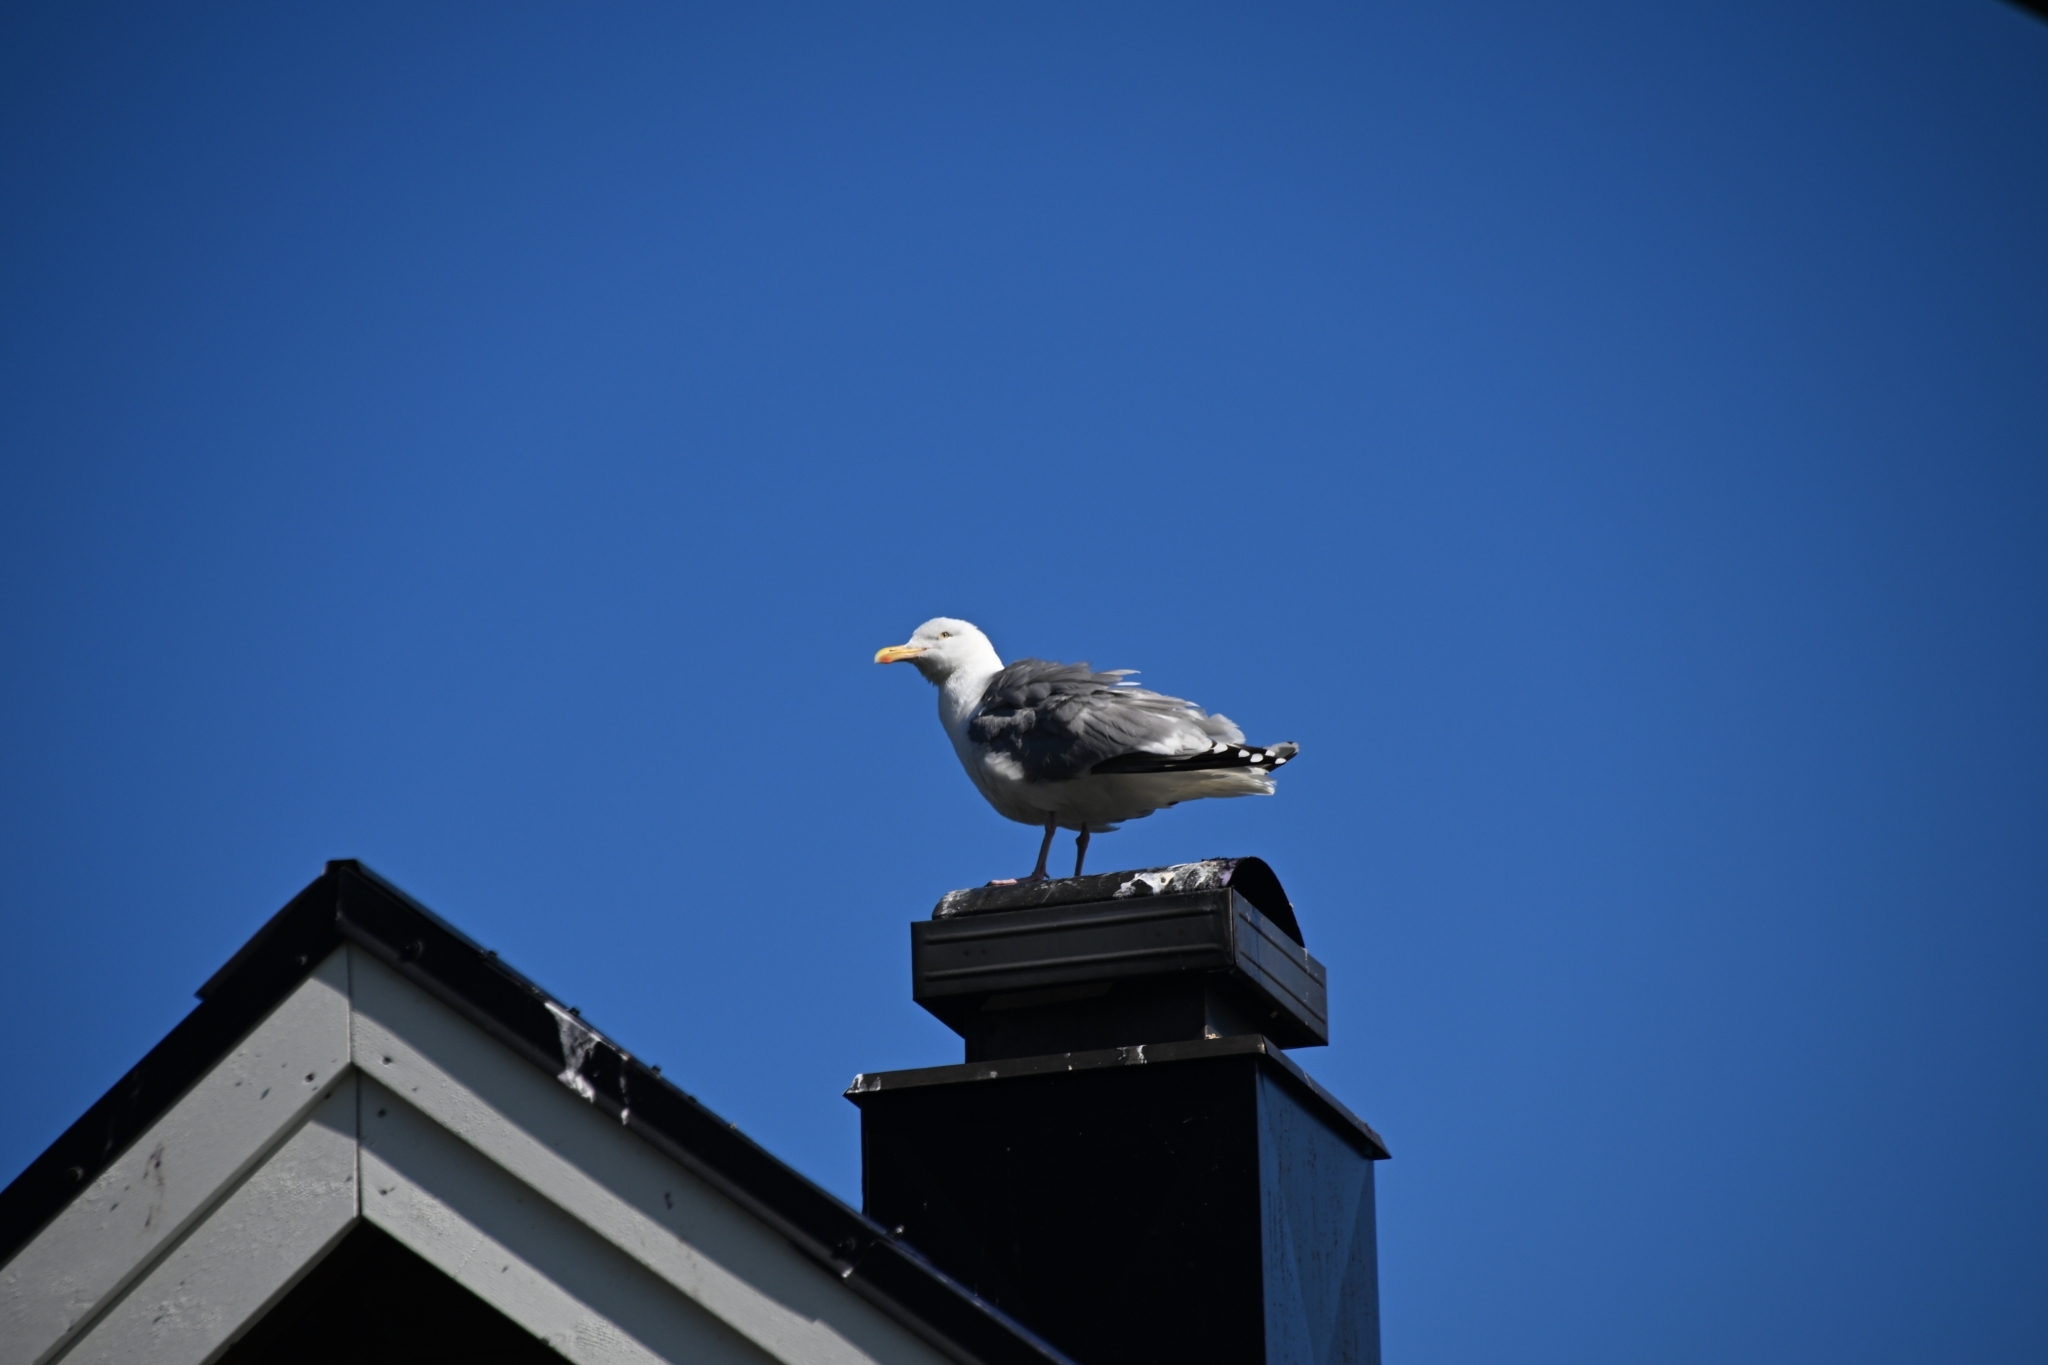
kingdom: Animalia
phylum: Chordata
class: Aves
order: Charadriiformes
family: Laridae
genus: Larus
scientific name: Larus argentatus
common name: Herring gull
